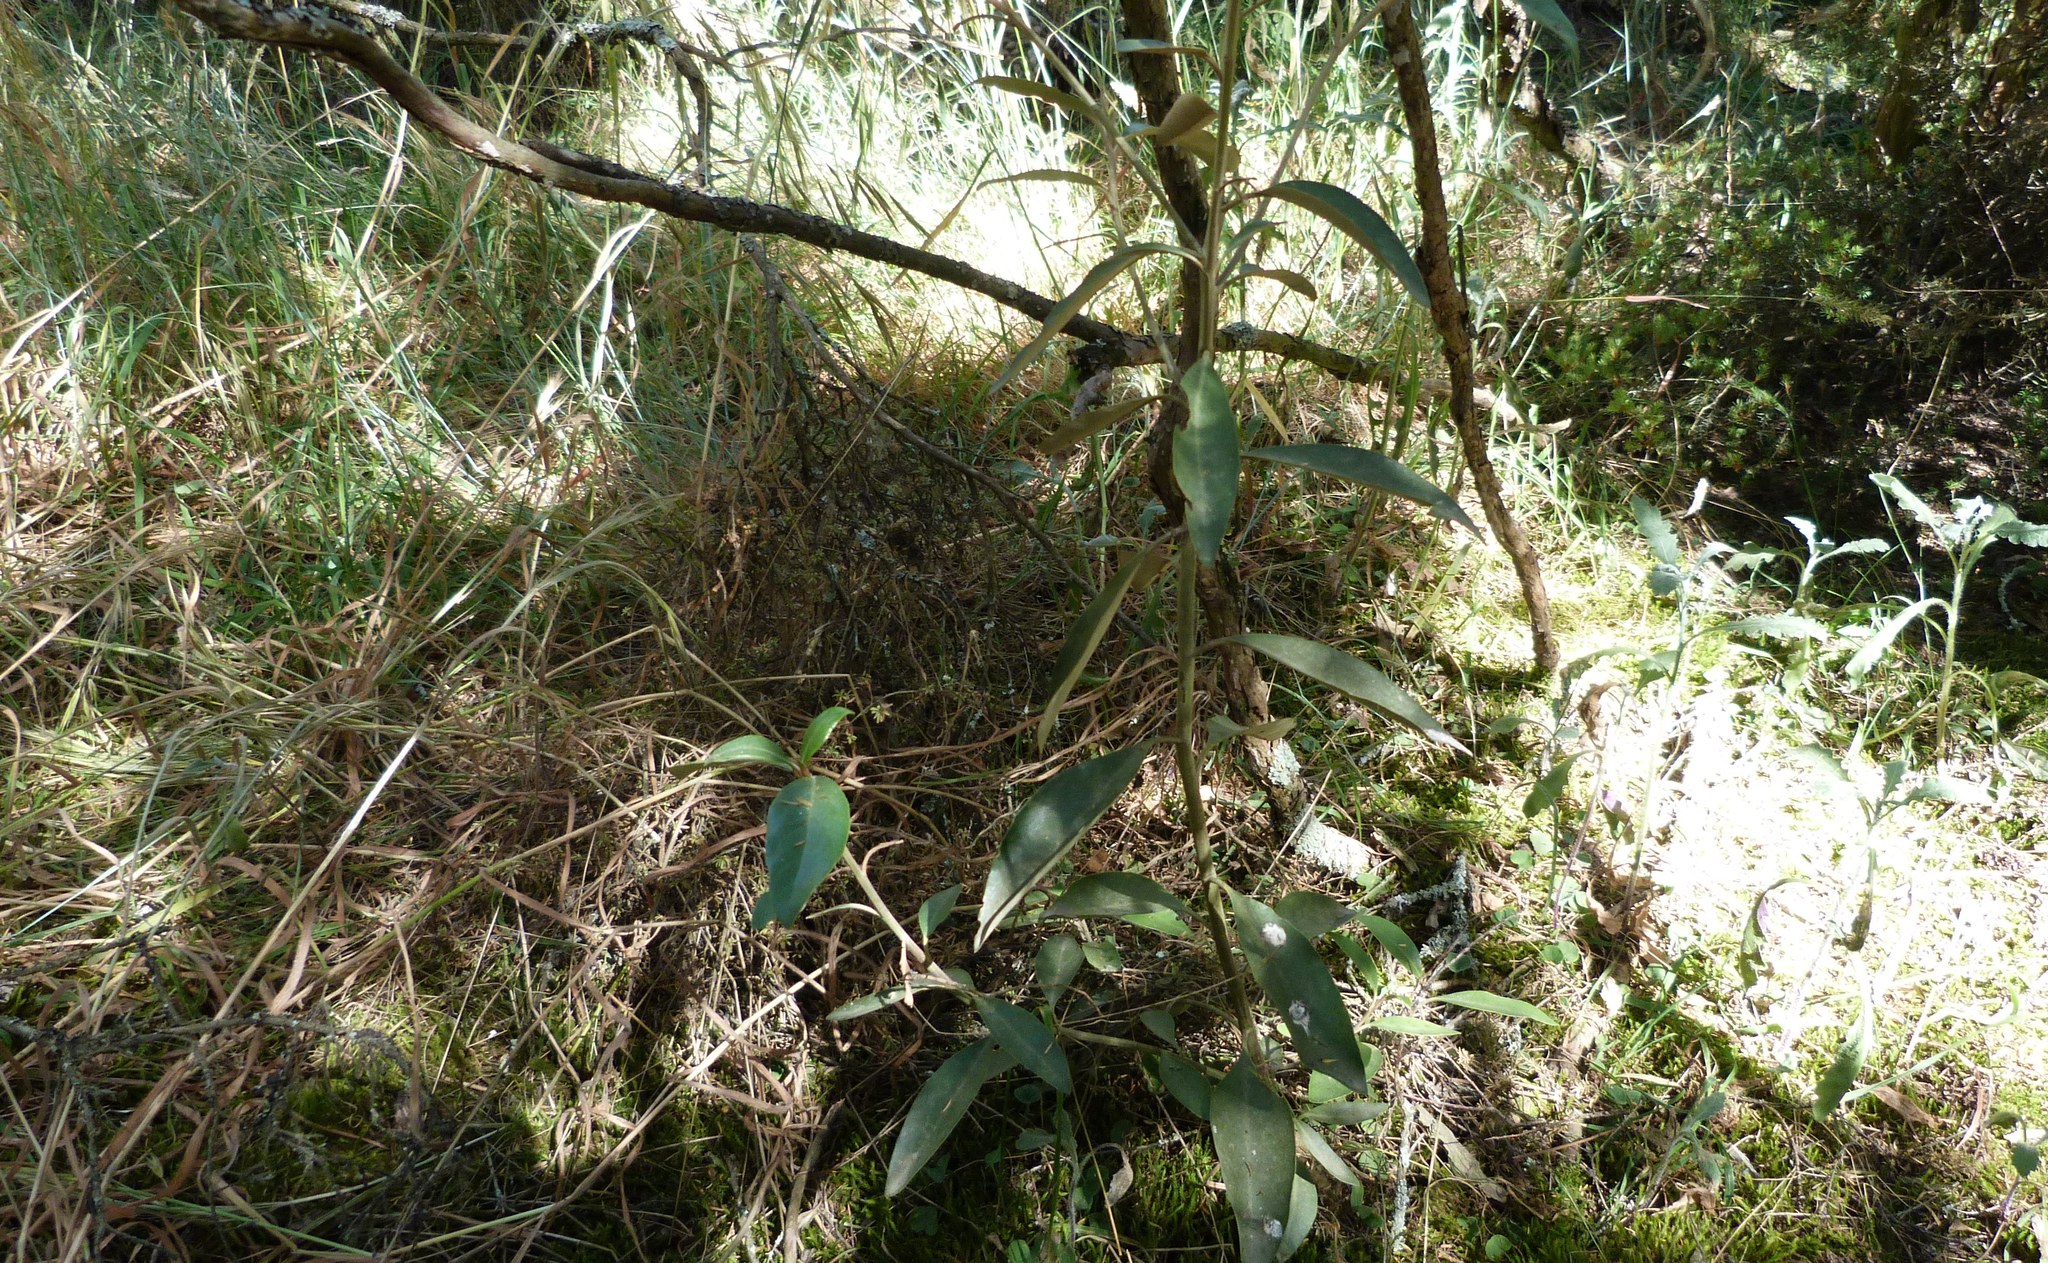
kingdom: Plantae
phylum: Tracheophyta
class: Magnoliopsida
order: Asterales
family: Asteraceae
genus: Olearia
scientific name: Olearia avicenniifolia
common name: Mangrove-leaf daisybush
